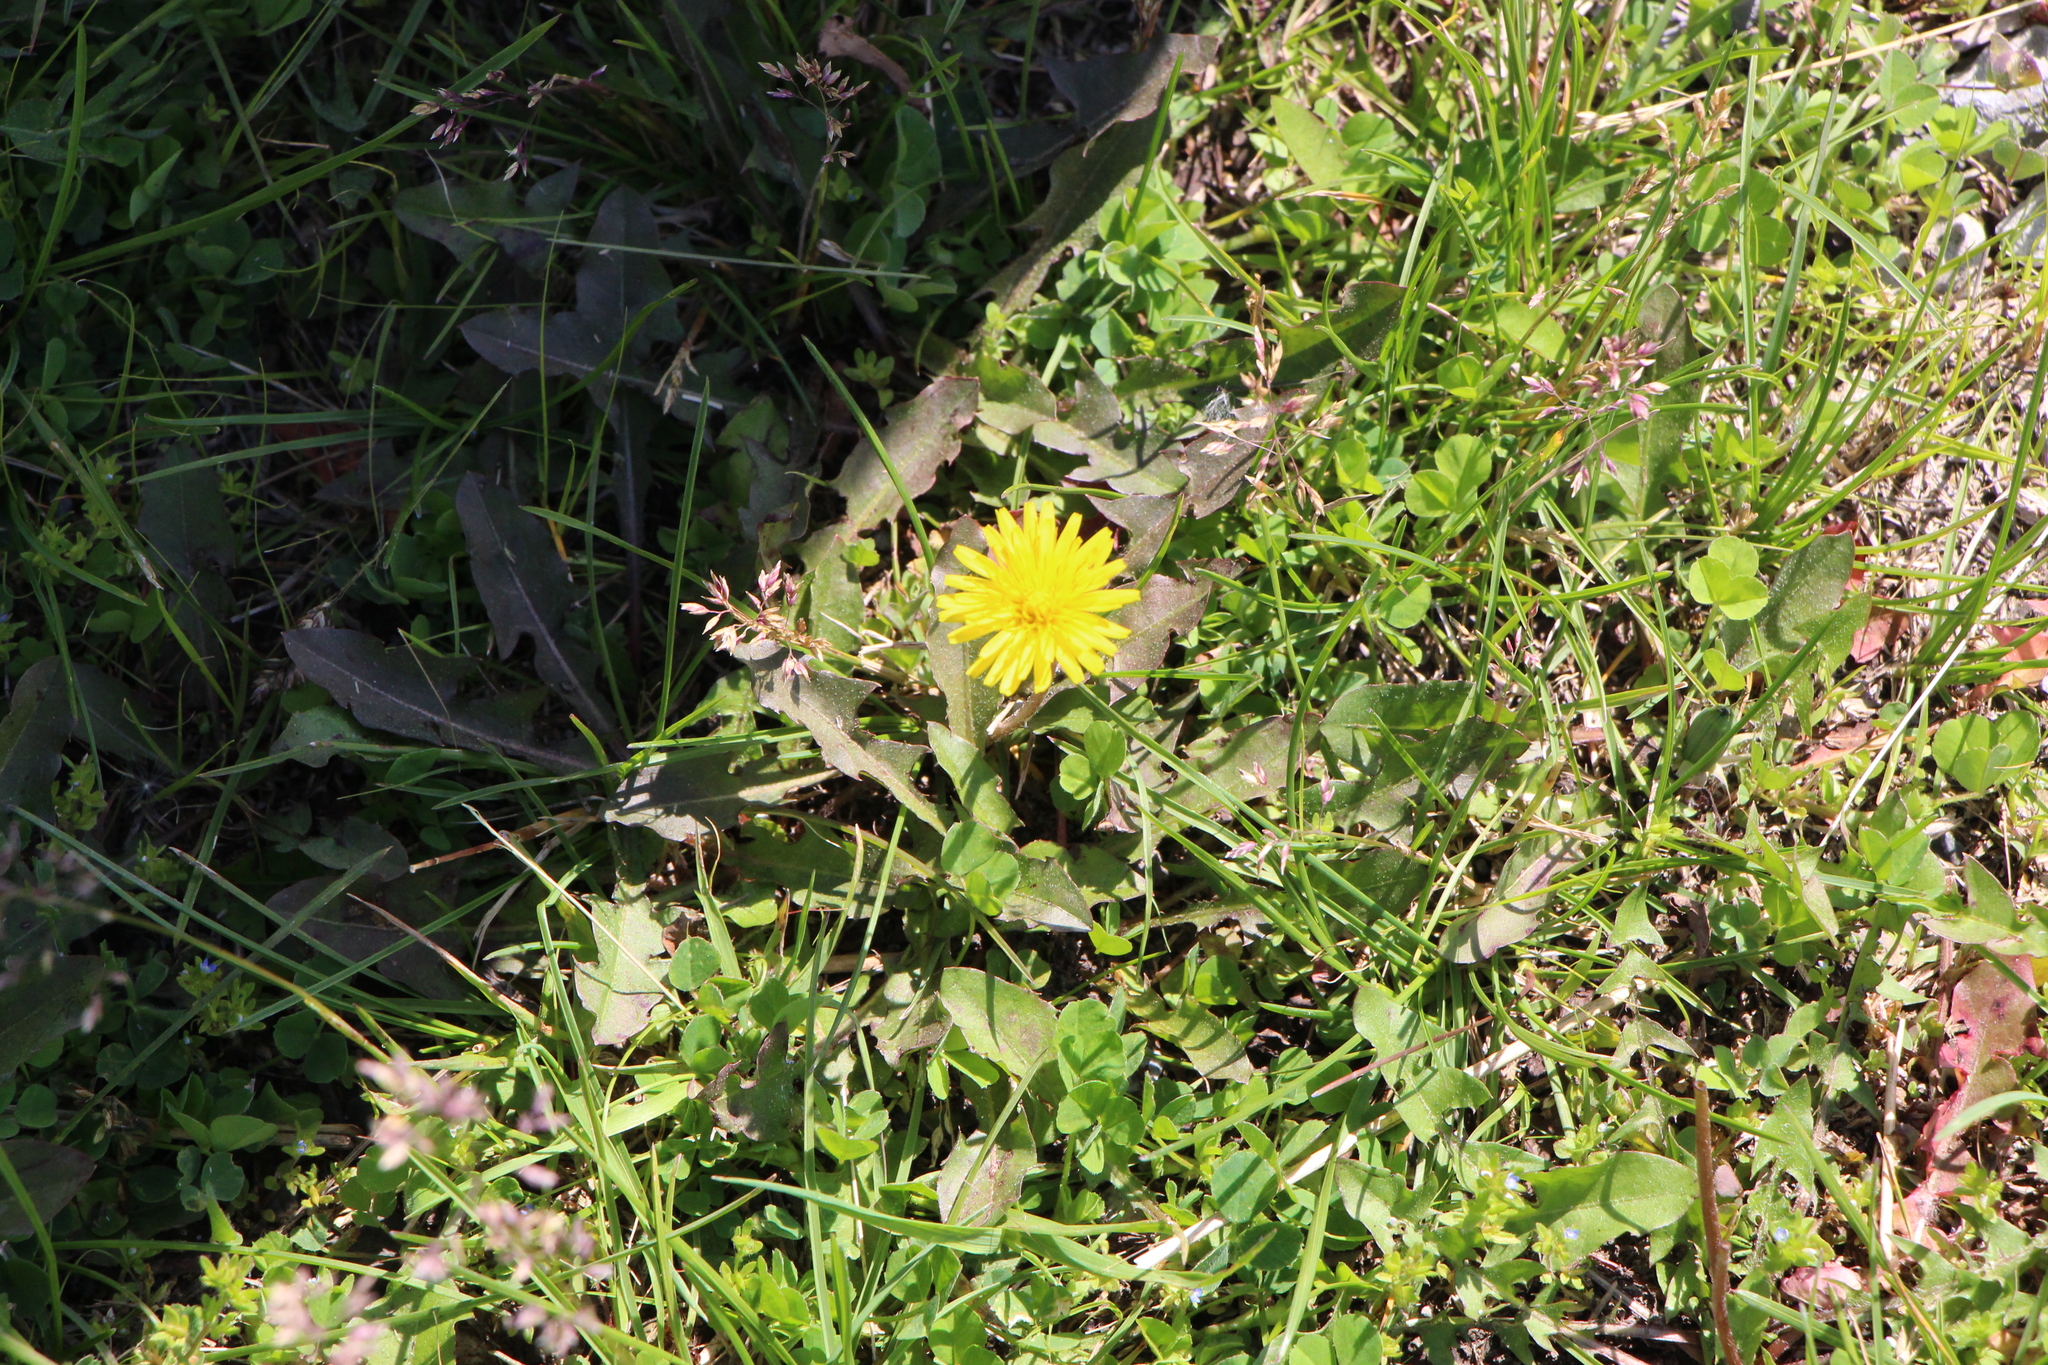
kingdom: Plantae
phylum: Tracheophyta
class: Magnoliopsida
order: Asterales
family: Asteraceae
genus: Taraxacum
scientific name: Taraxacum
